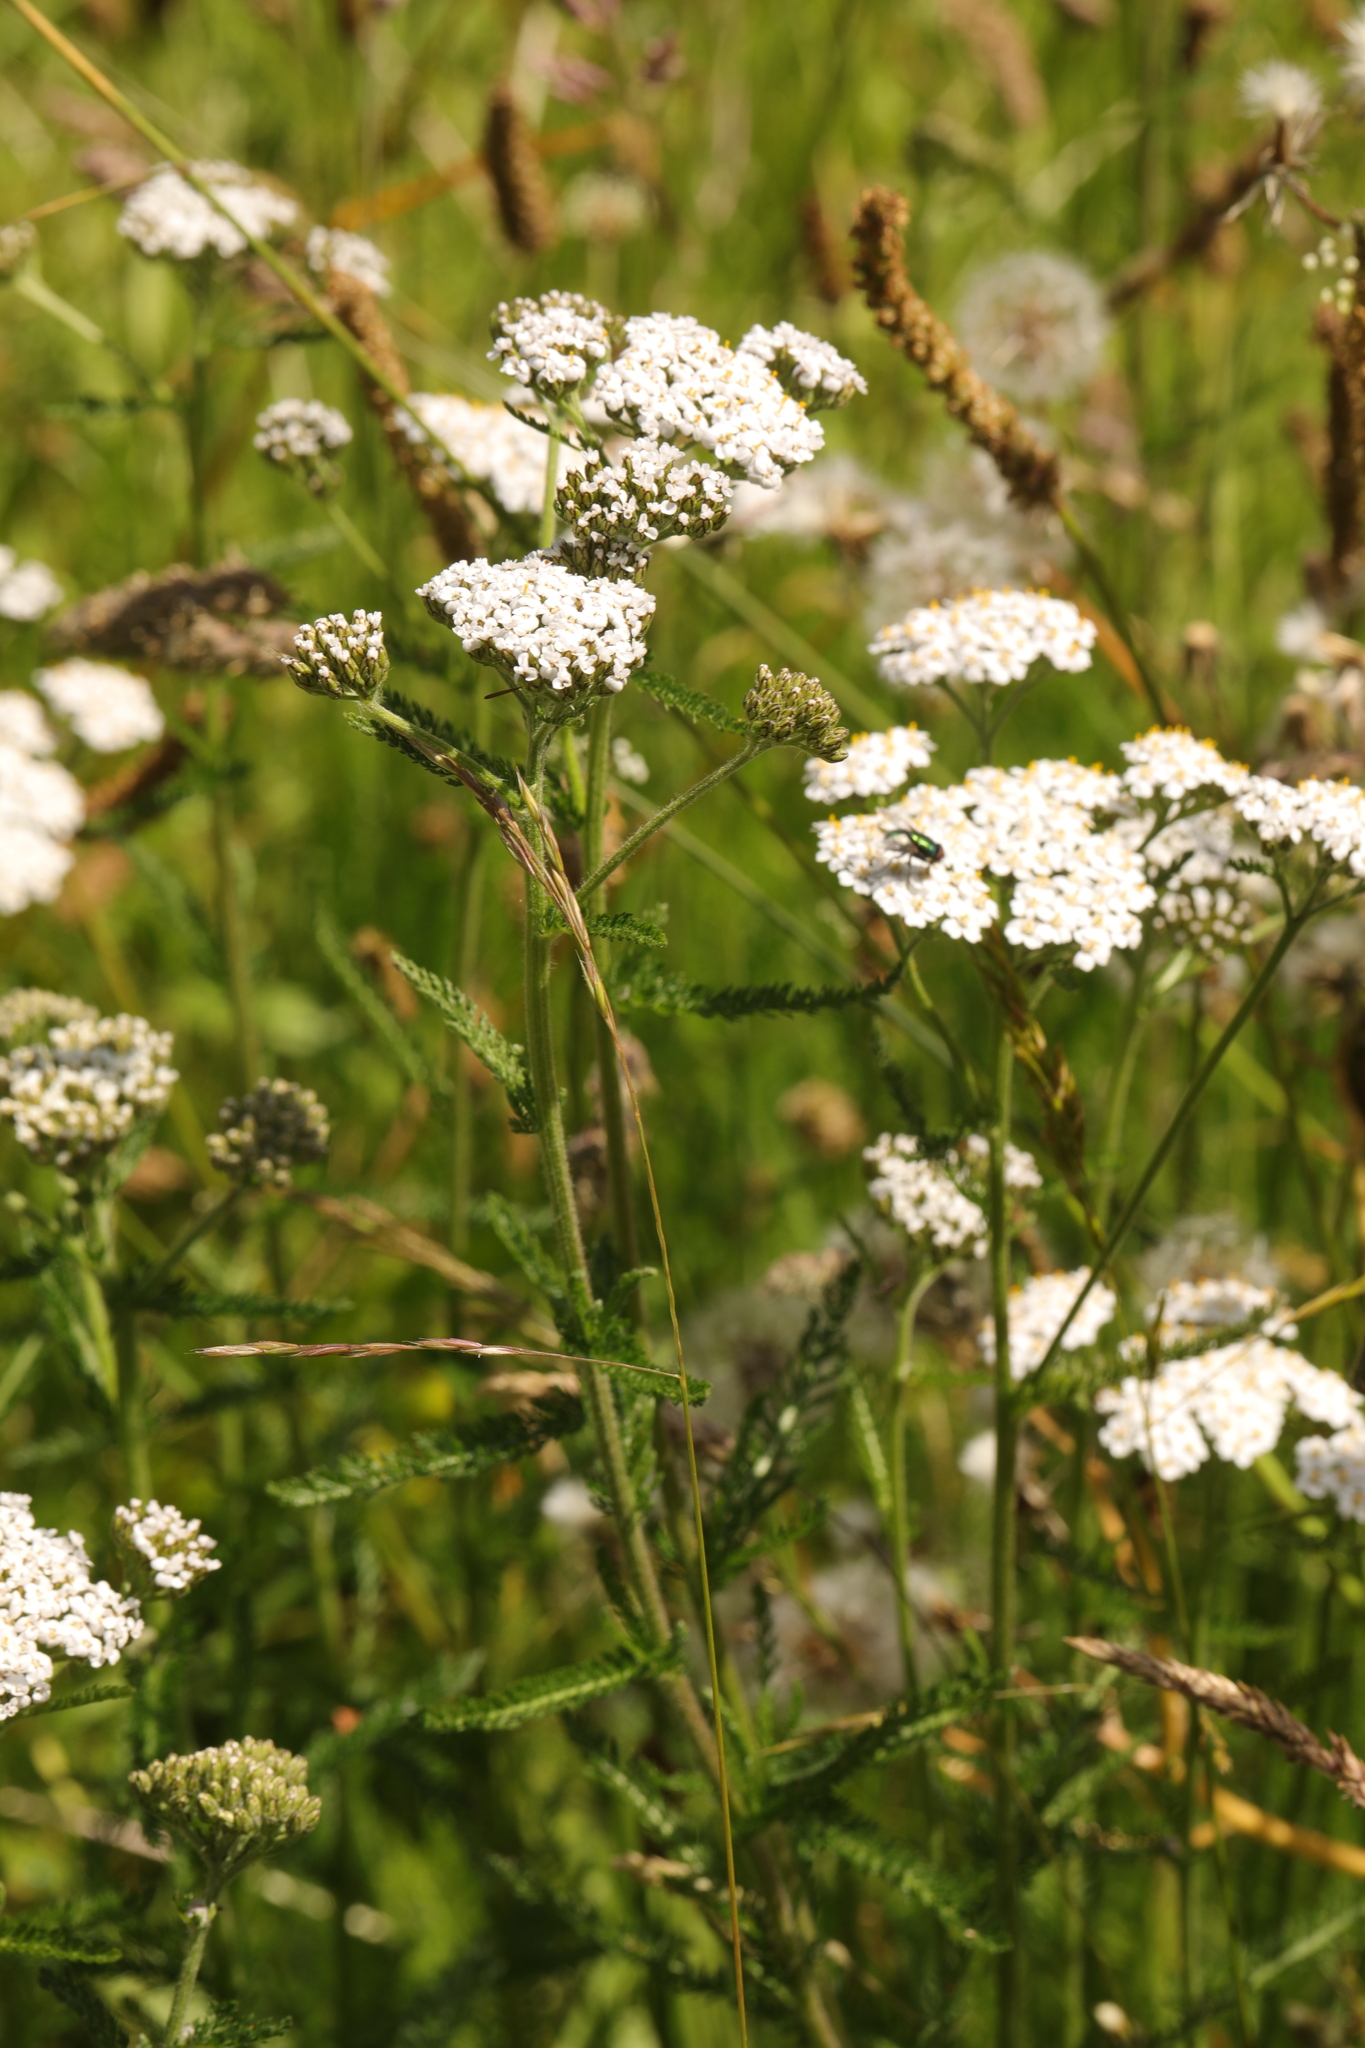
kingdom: Plantae
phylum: Tracheophyta
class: Magnoliopsida
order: Asterales
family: Asteraceae
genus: Achillea
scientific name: Achillea millefolium
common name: Yarrow
